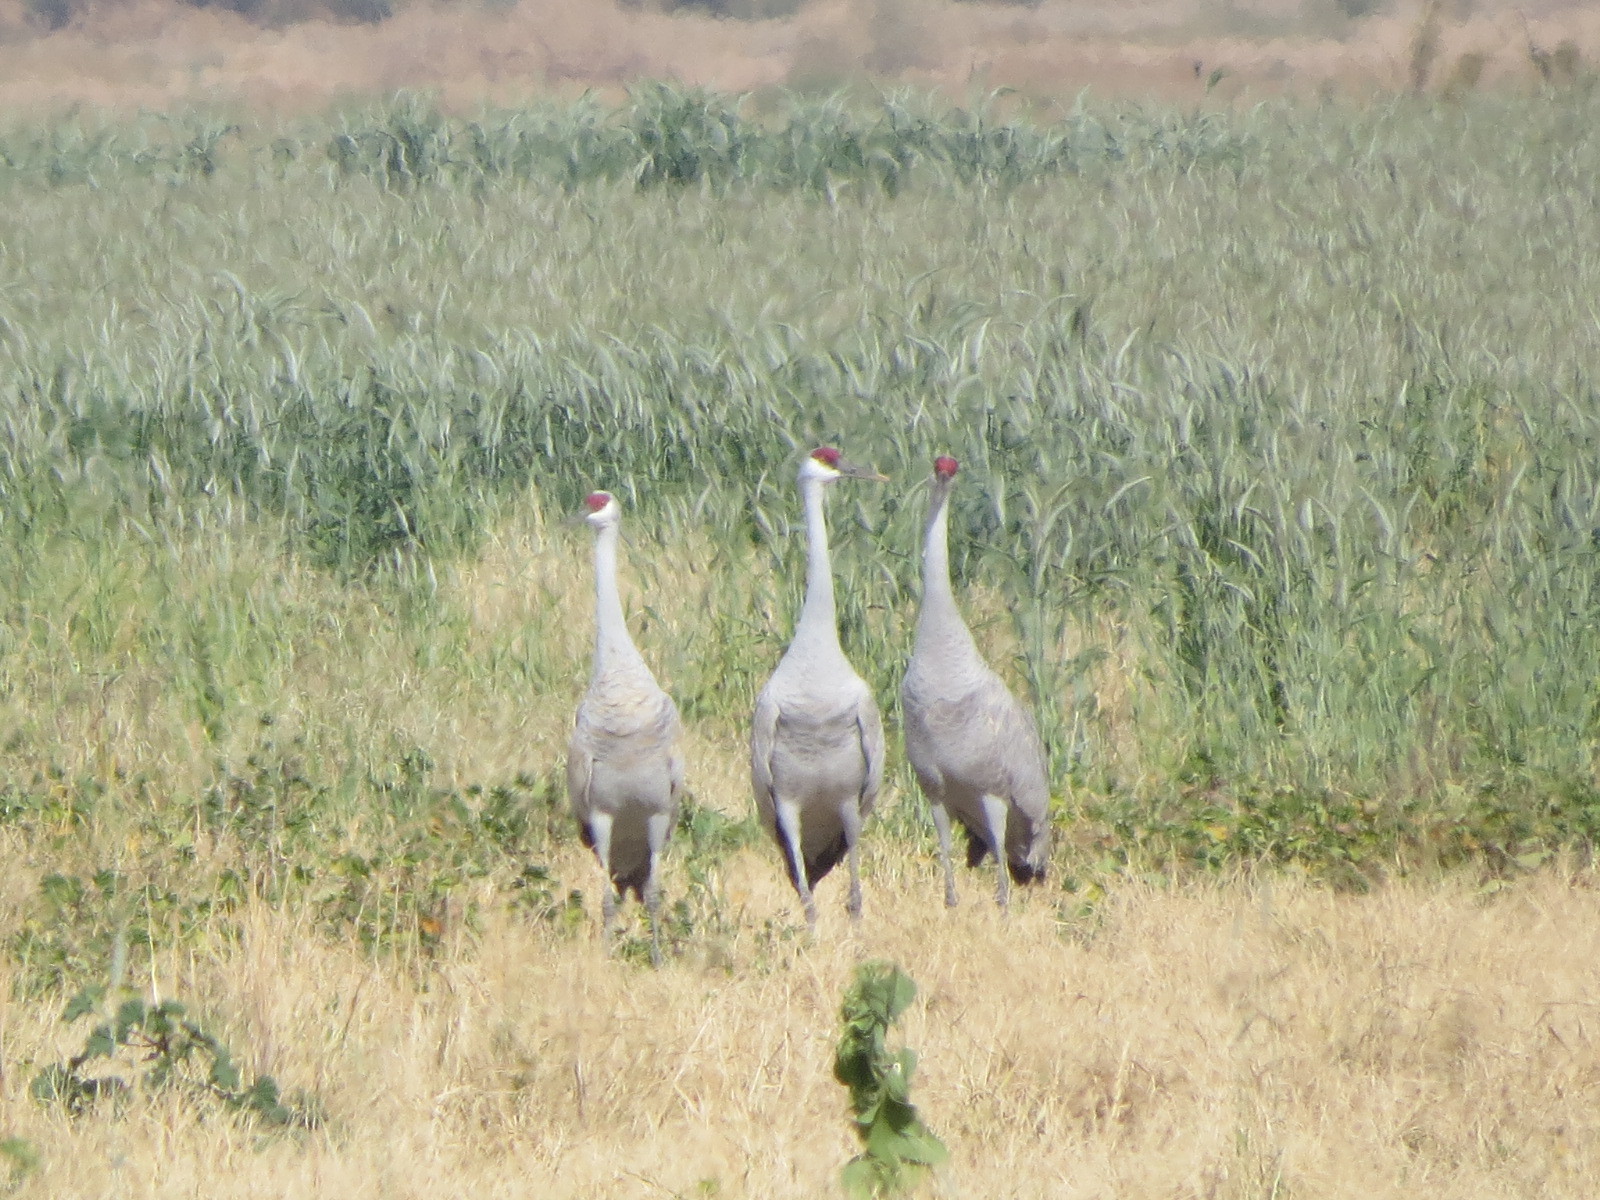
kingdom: Animalia
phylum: Chordata
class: Aves
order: Gruiformes
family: Gruidae
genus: Grus
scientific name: Grus canadensis
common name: Sandhill crane
